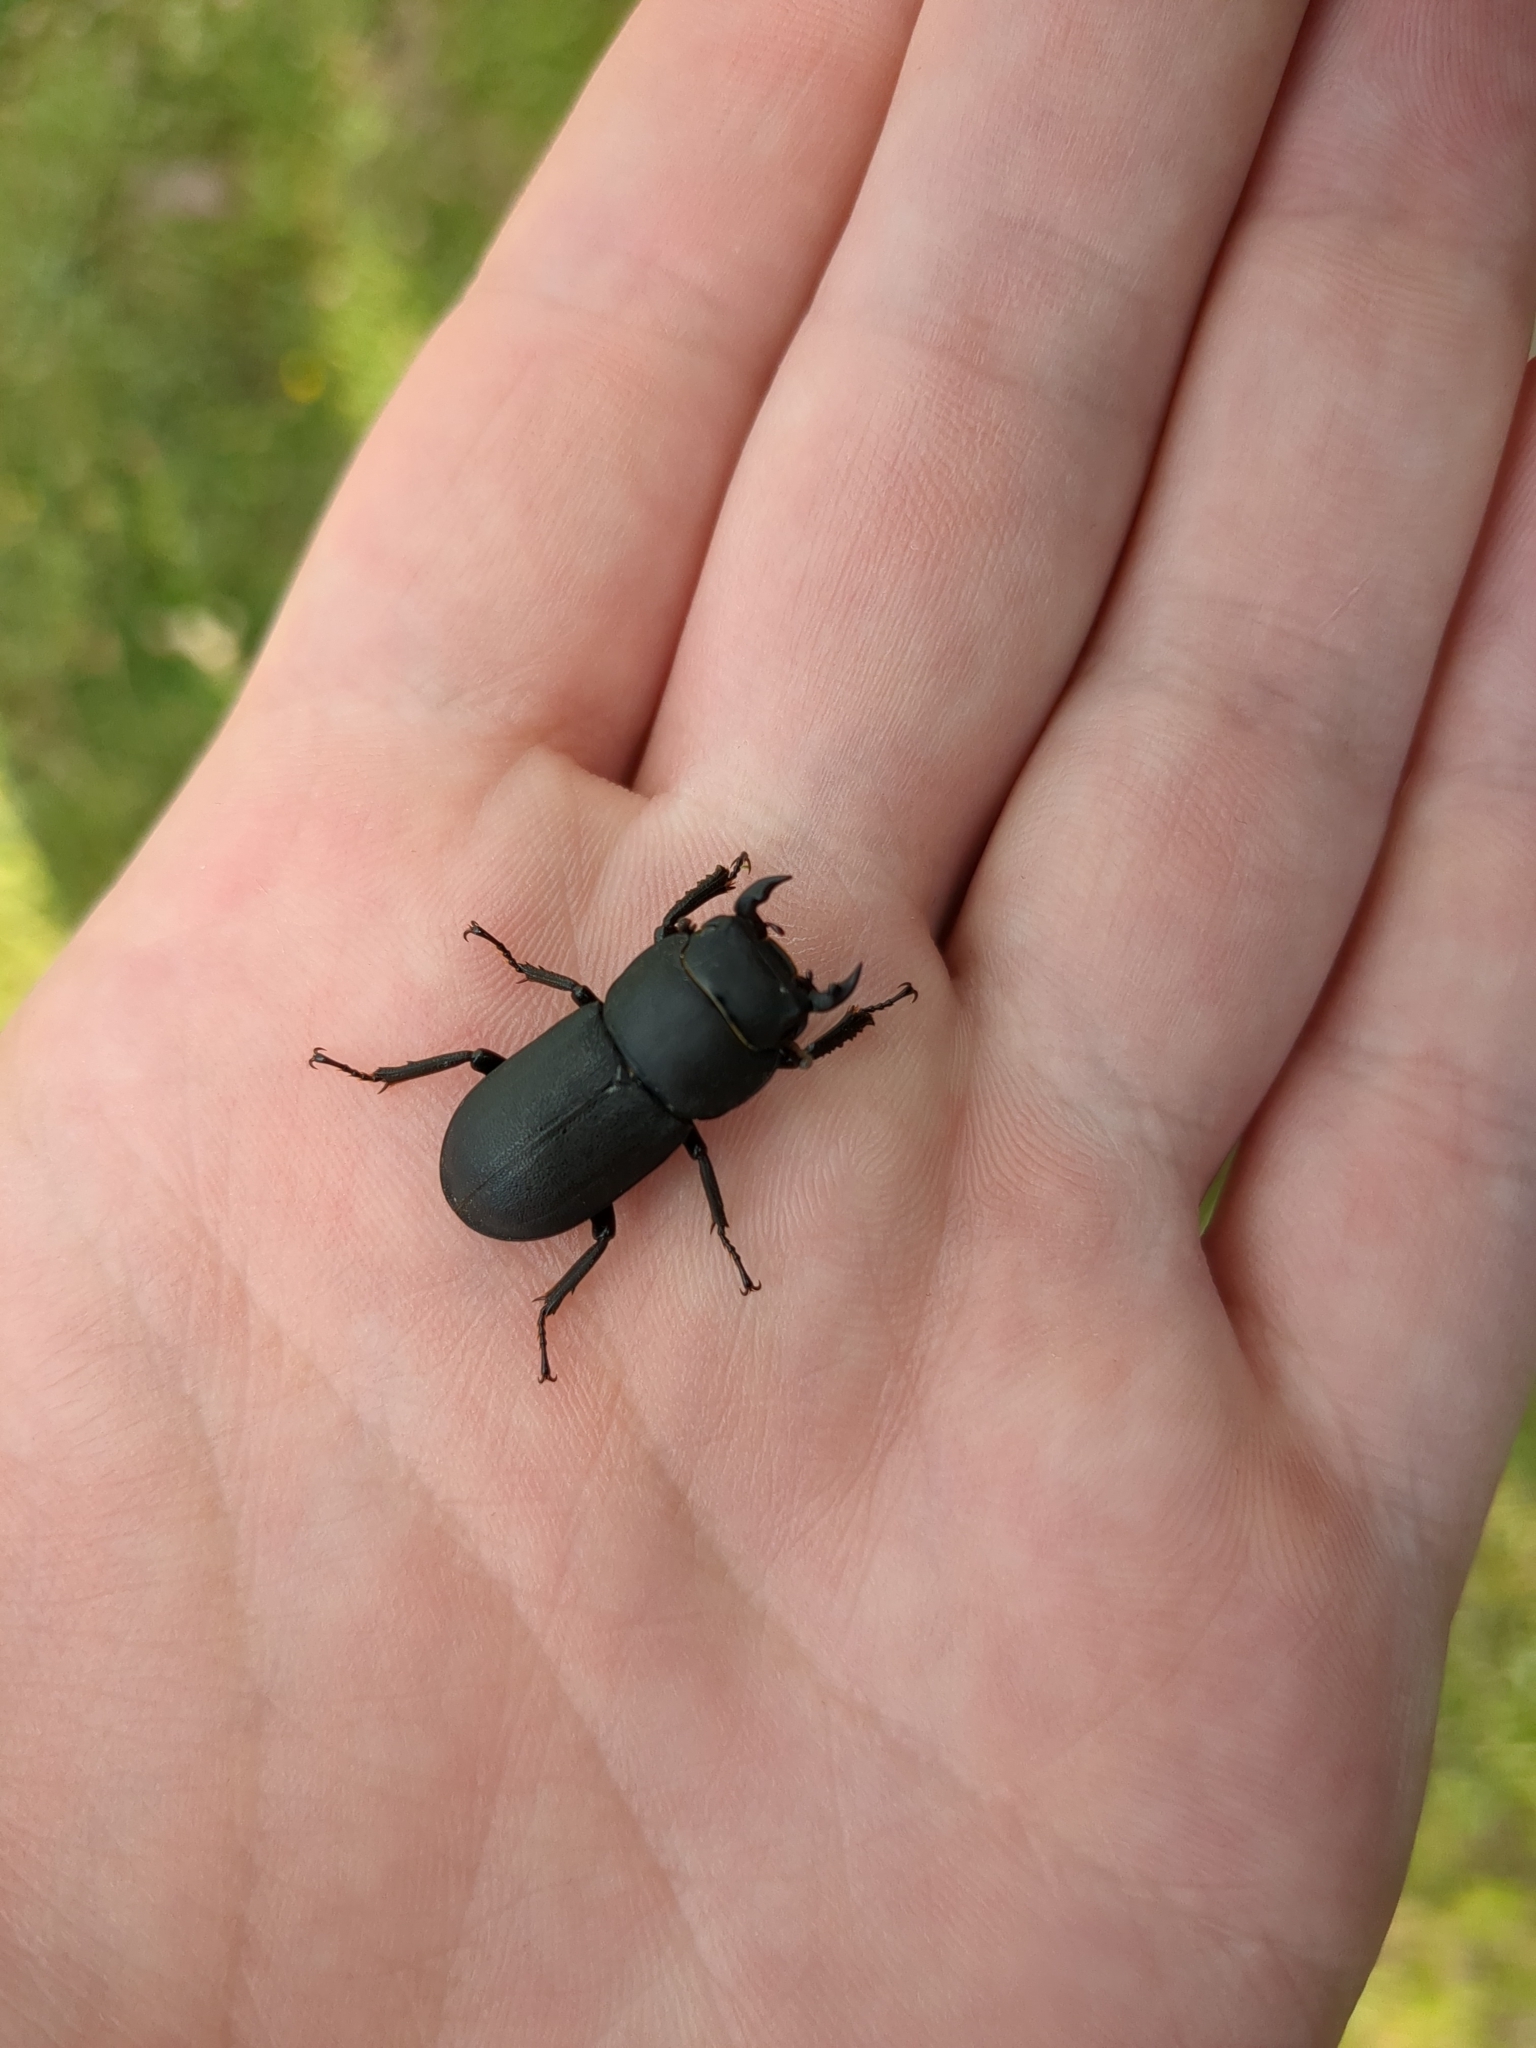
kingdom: Animalia
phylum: Arthropoda
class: Insecta
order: Coleoptera
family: Lucanidae
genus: Dorcus
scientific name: Dorcus parallelipipedus
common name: Lesser stag beetle
